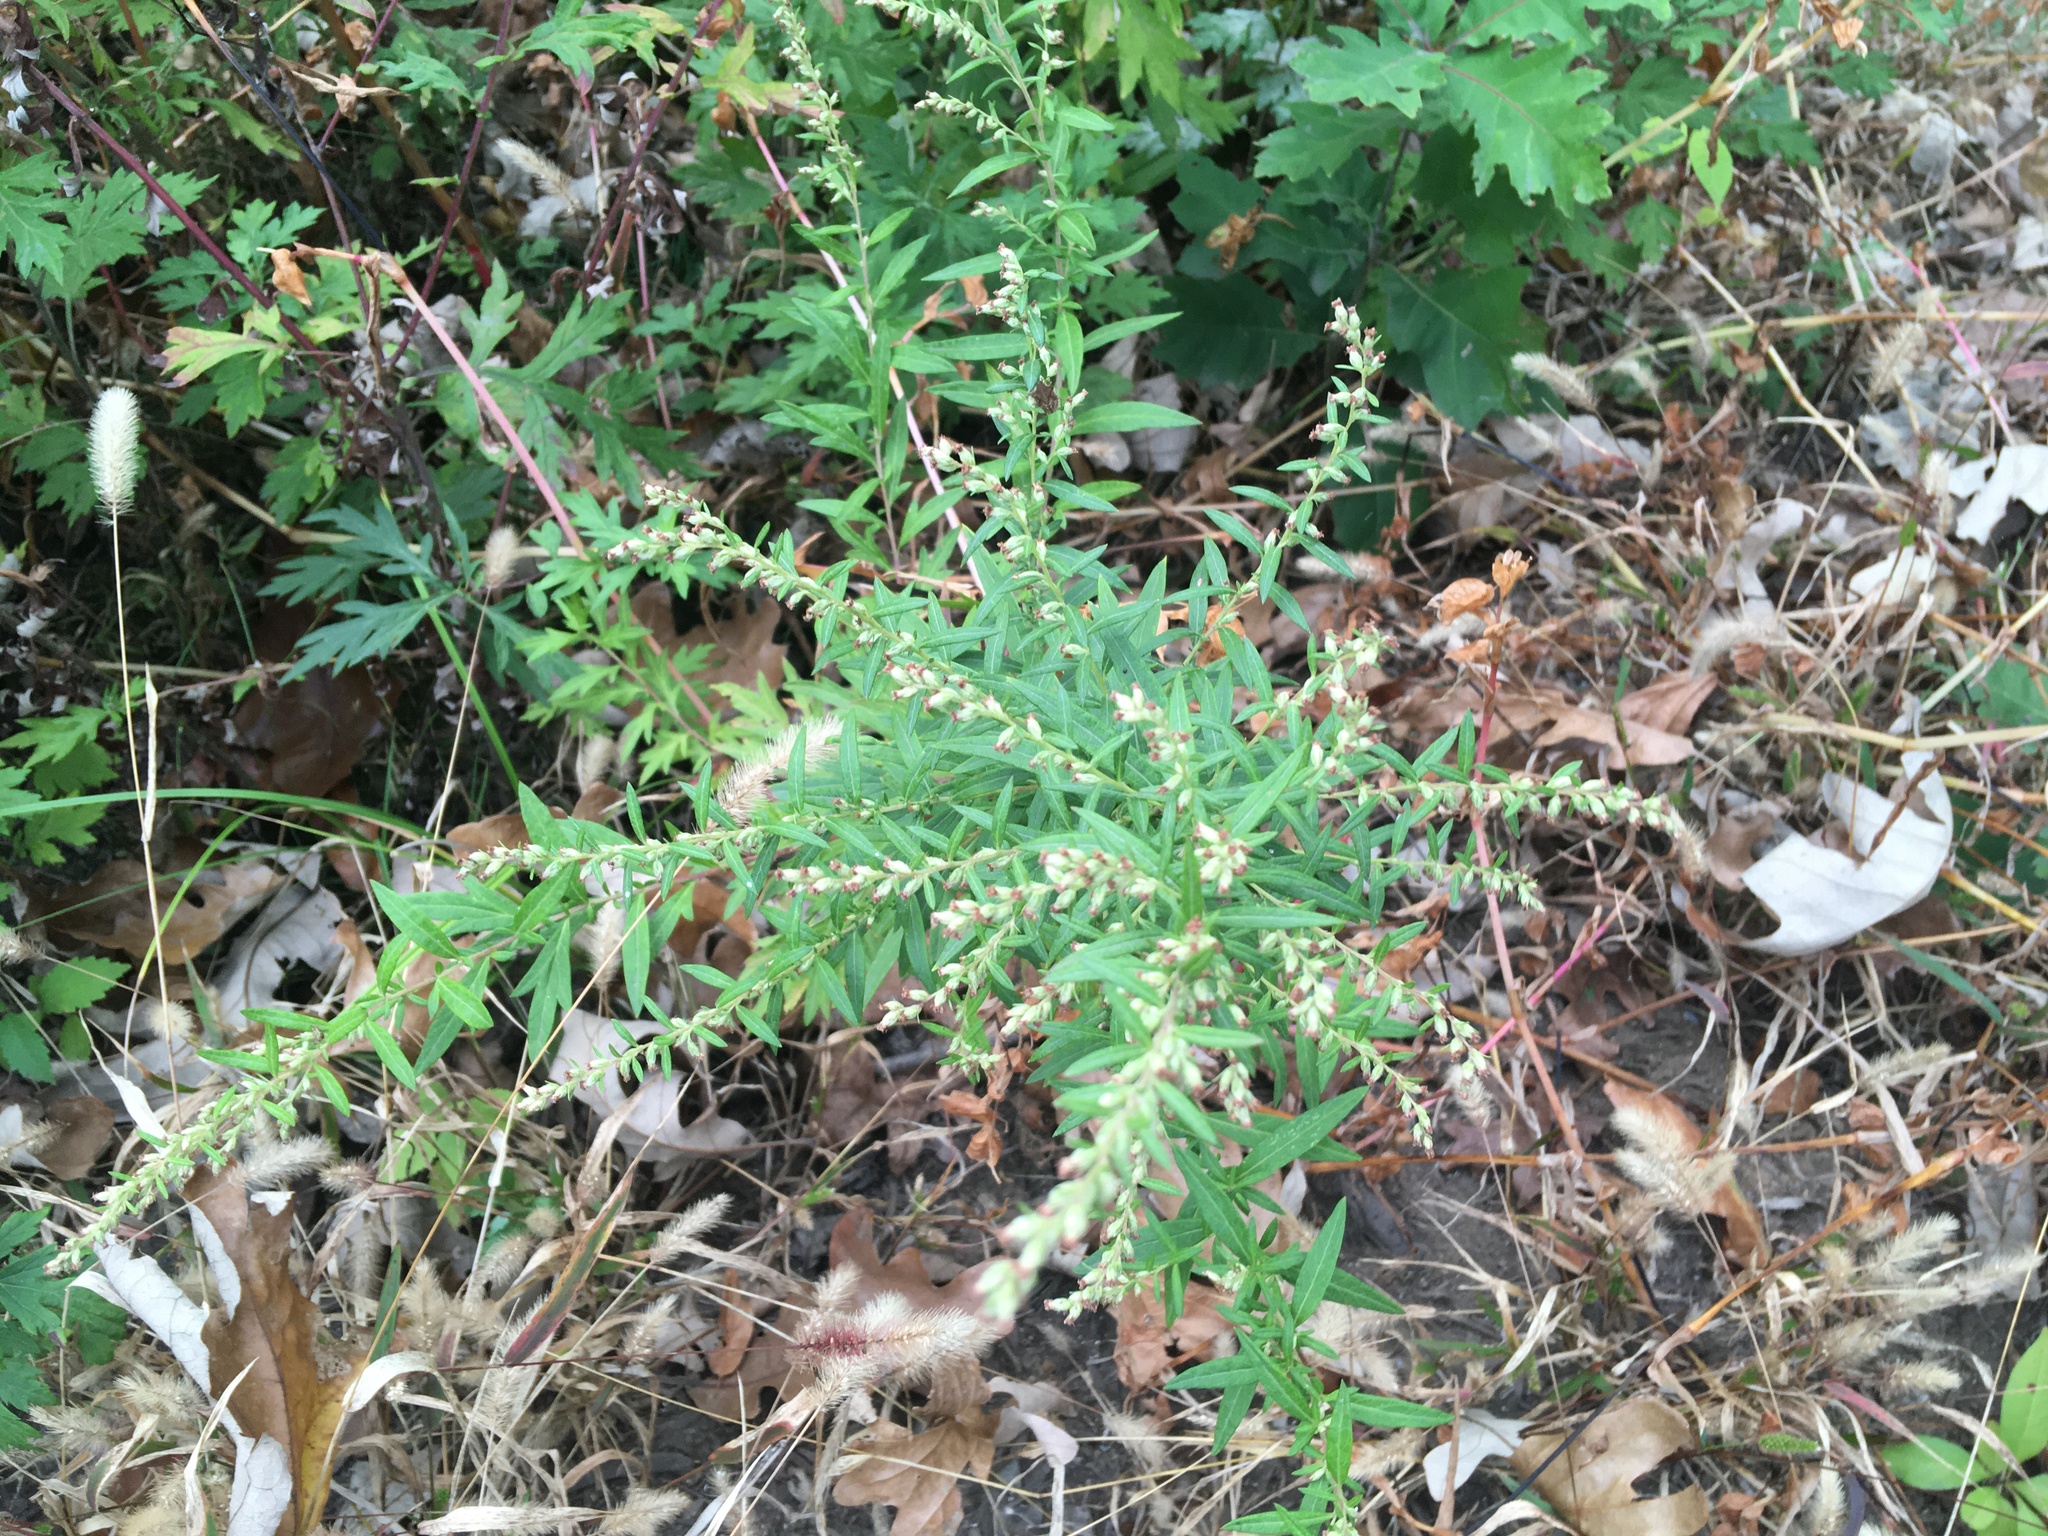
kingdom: Plantae
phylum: Tracheophyta
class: Magnoliopsida
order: Asterales
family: Asteraceae
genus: Artemisia
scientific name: Artemisia vulgaris
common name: Mugwort
